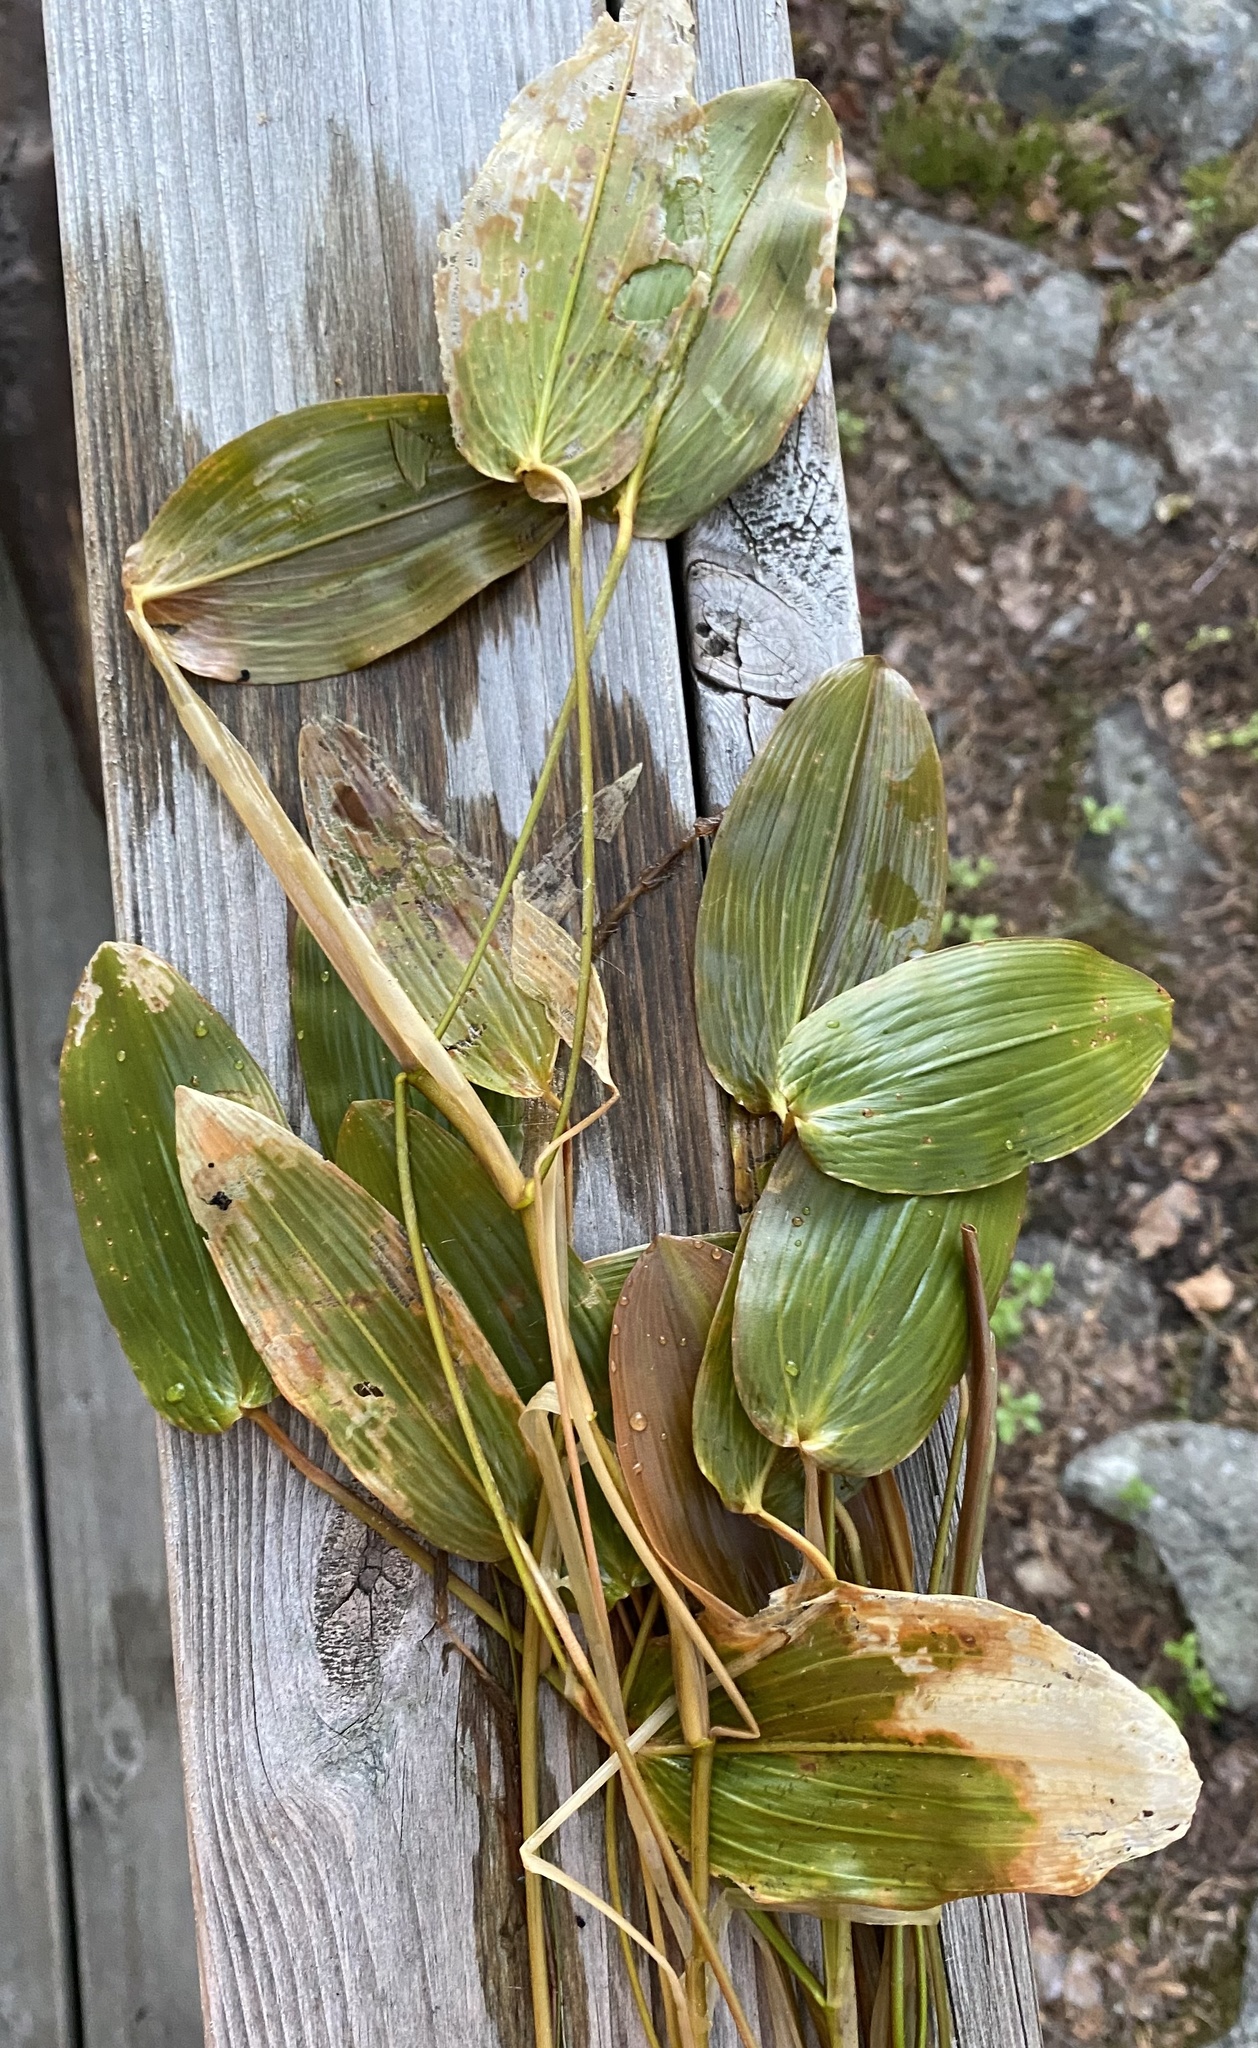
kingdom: Plantae
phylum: Tracheophyta
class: Liliopsida
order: Alismatales
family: Potamogetonaceae
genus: Potamogeton
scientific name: Potamogeton natans
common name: Broad-leaved pondweed
